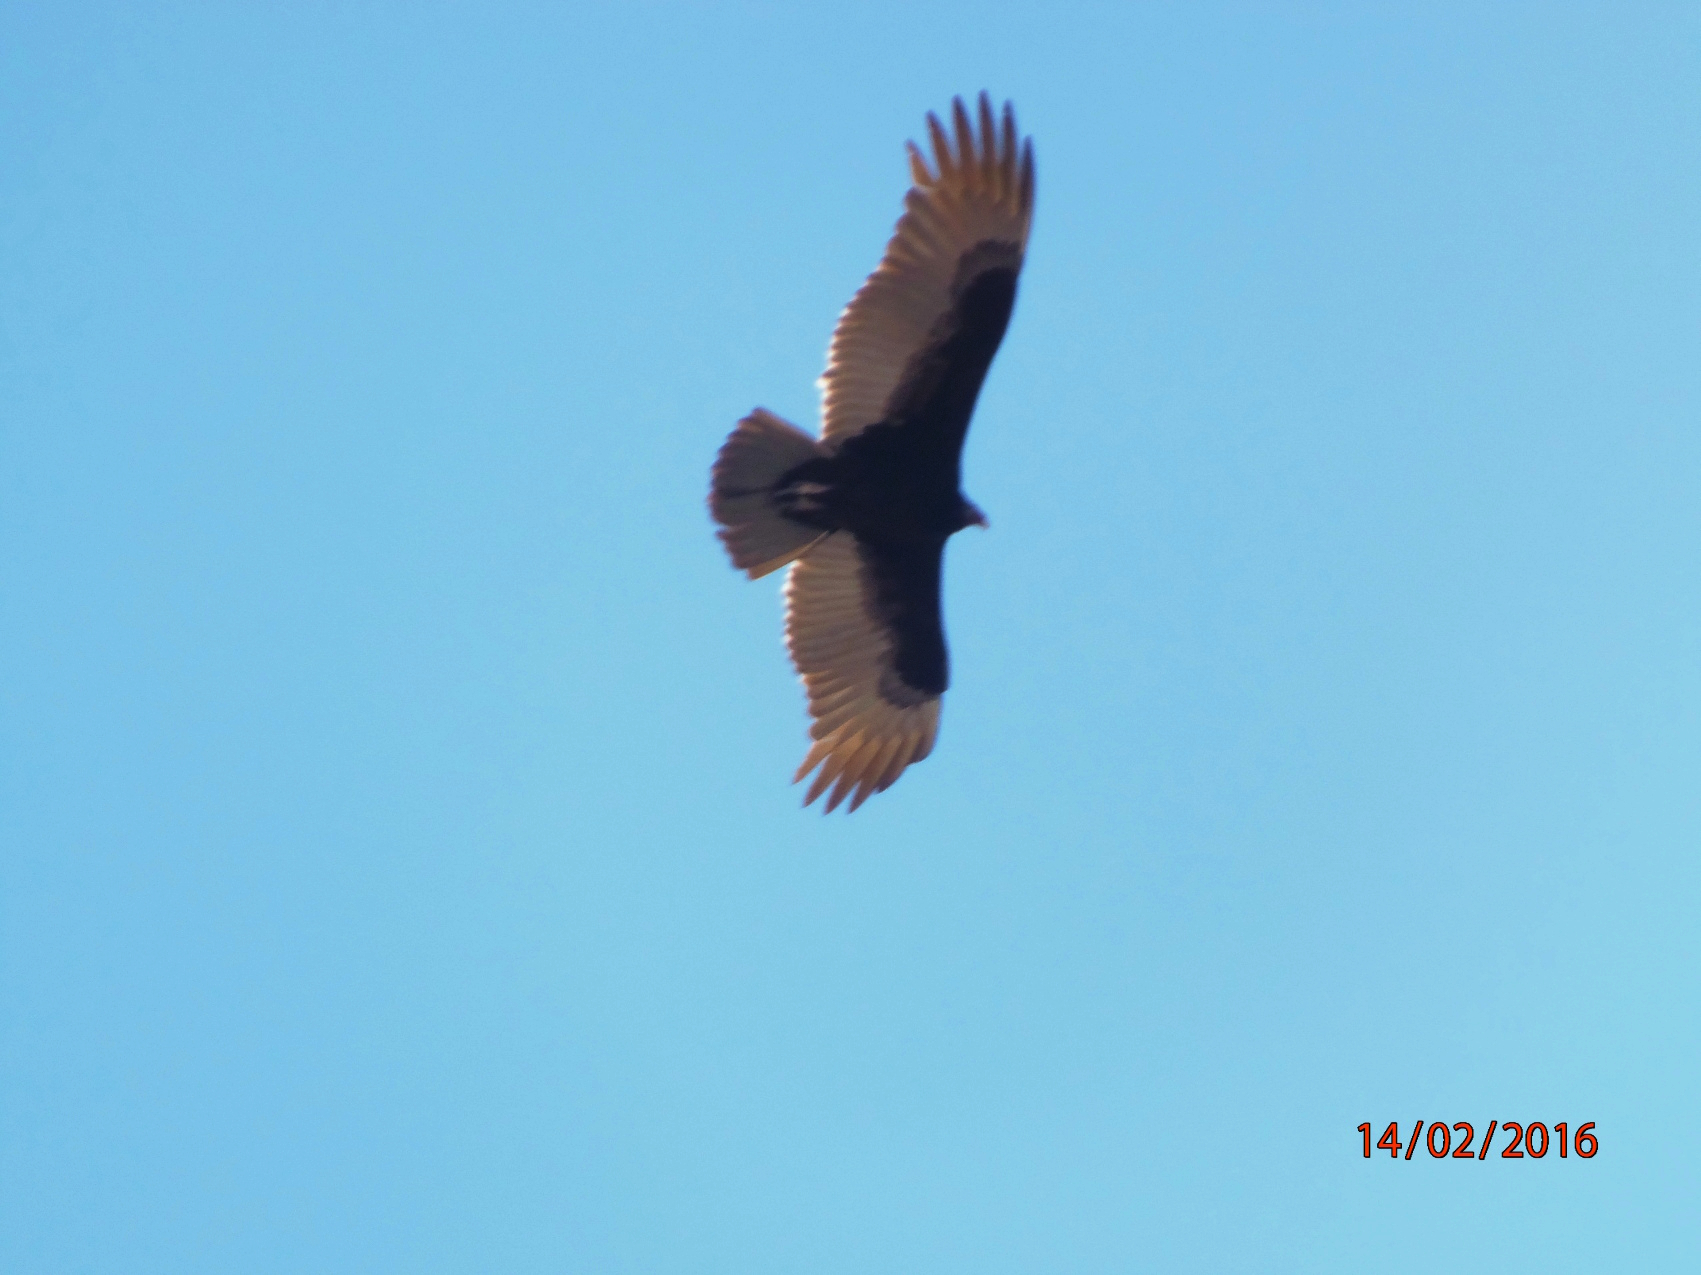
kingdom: Animalia
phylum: Chordata
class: Aves
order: Accipitriformes
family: Cathartidae
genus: Cathartes
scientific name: Cathartes aura
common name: Turkey vulture
